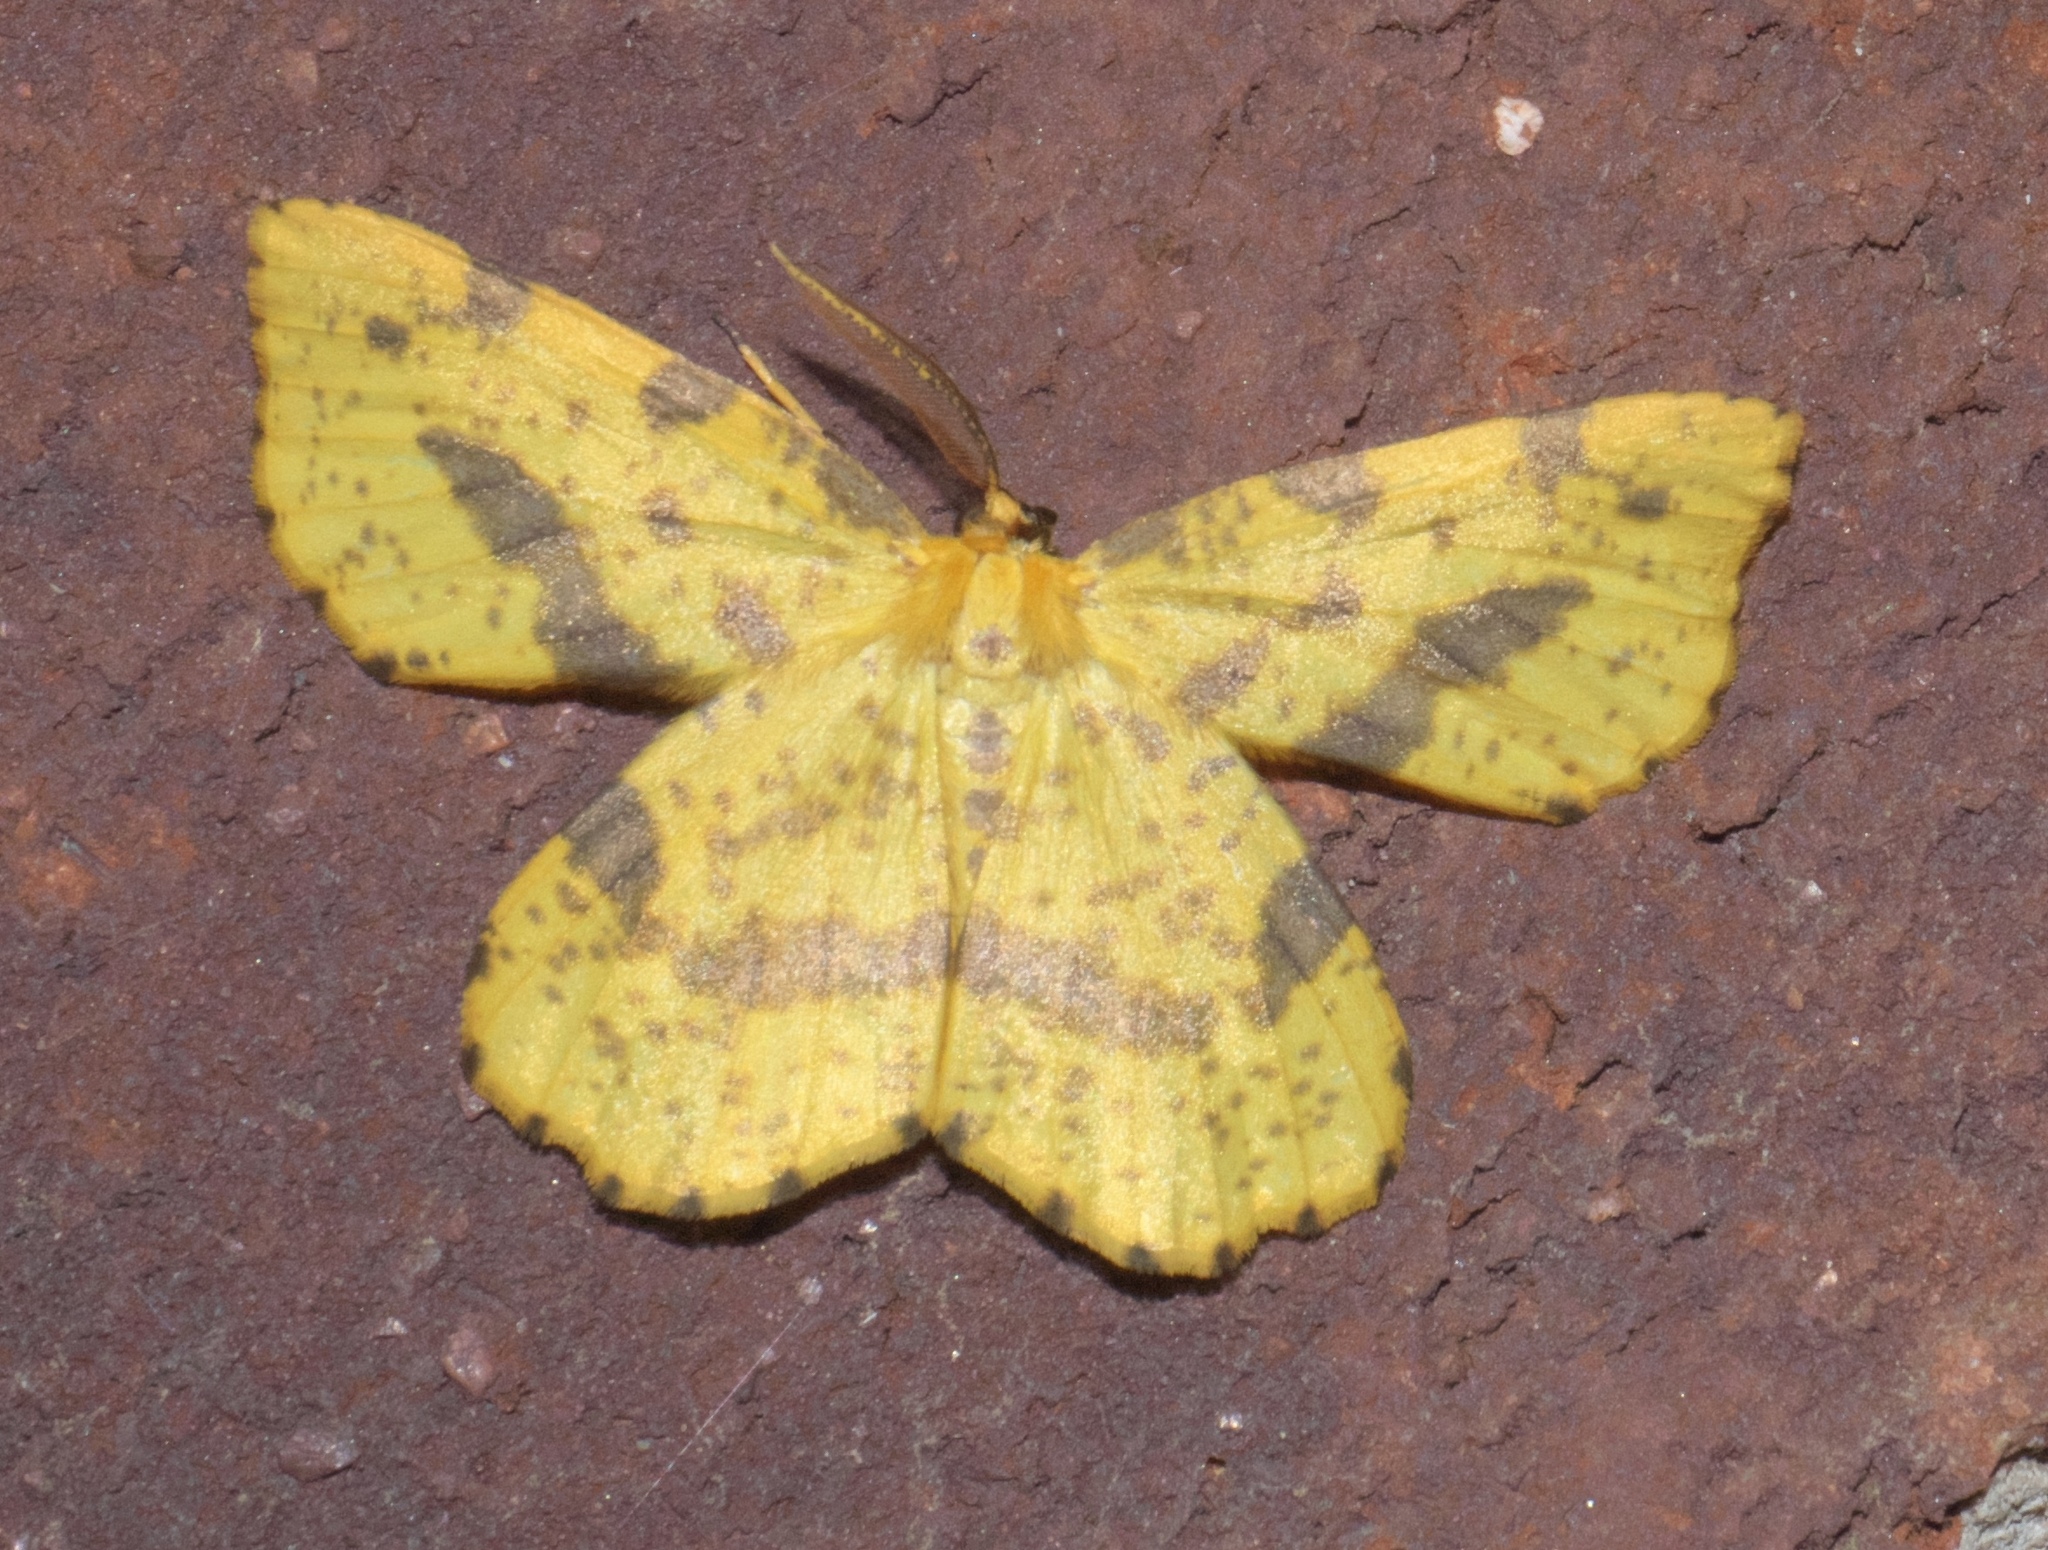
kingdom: Animalia
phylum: Arthropoda
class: Insecta
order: Lepidoptera
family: Geometridae
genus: Xanthotype
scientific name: Xanthotype
